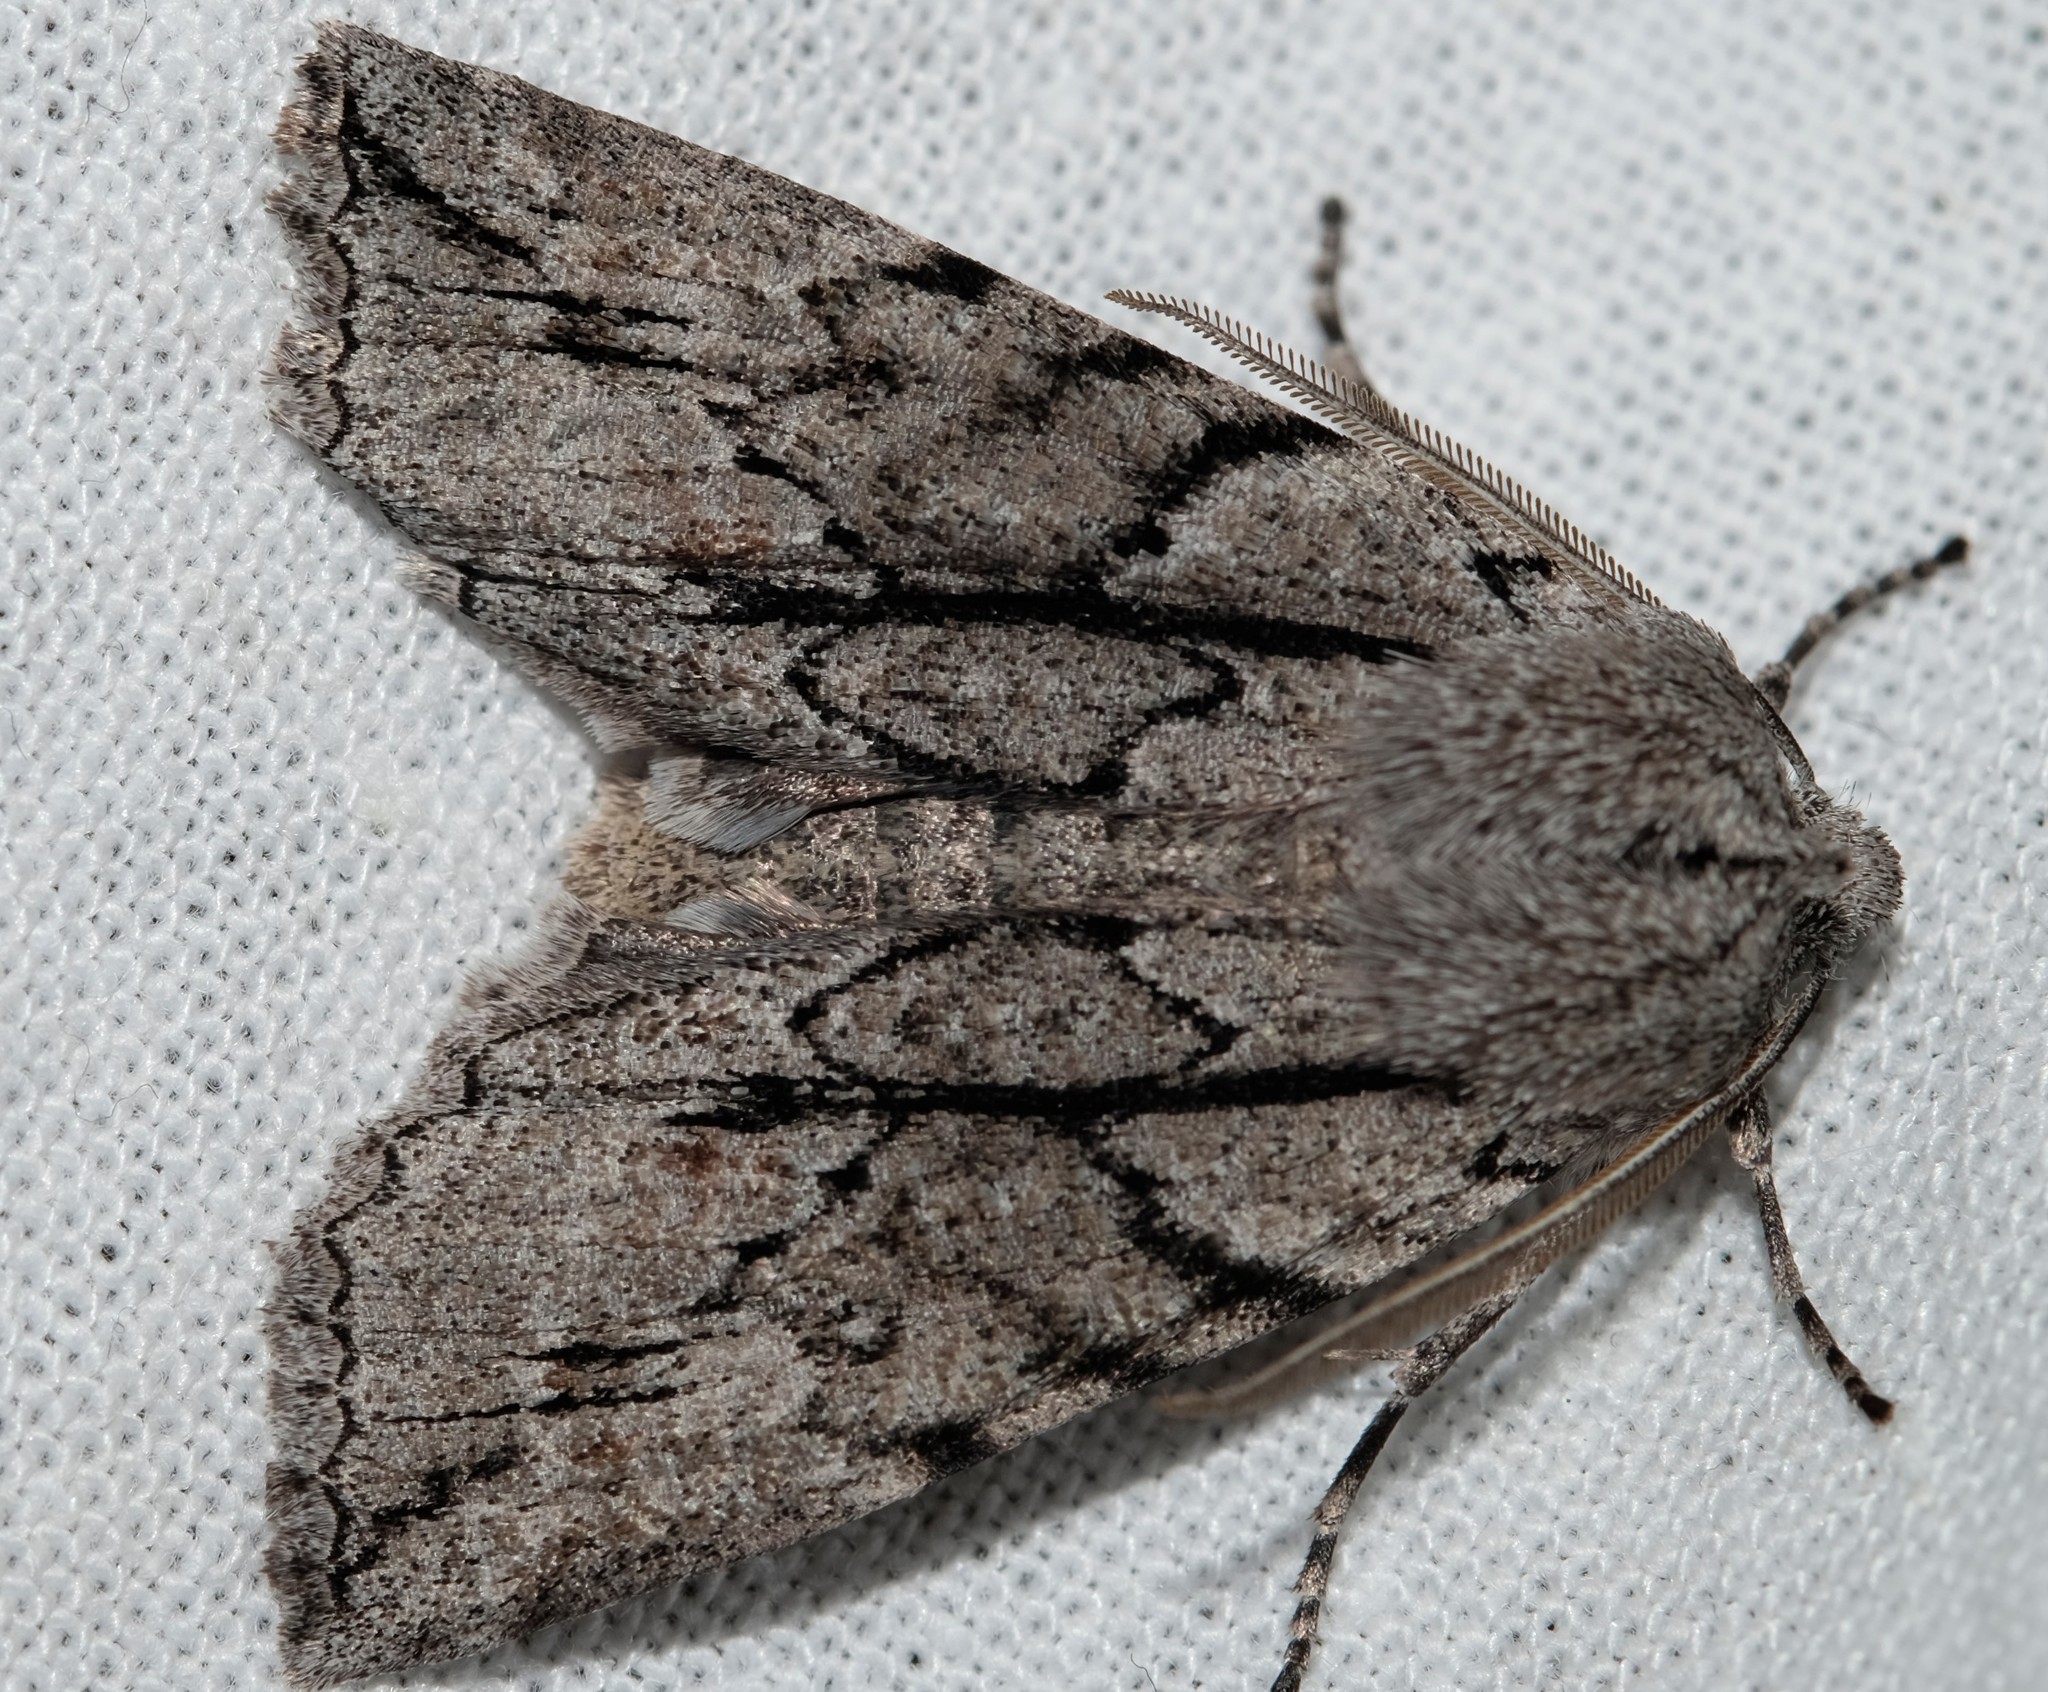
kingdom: Animalia
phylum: Arthropoda
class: Insecta
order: Lepidoptera
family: Geometridae
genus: Nisista
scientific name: Nisista galearia
